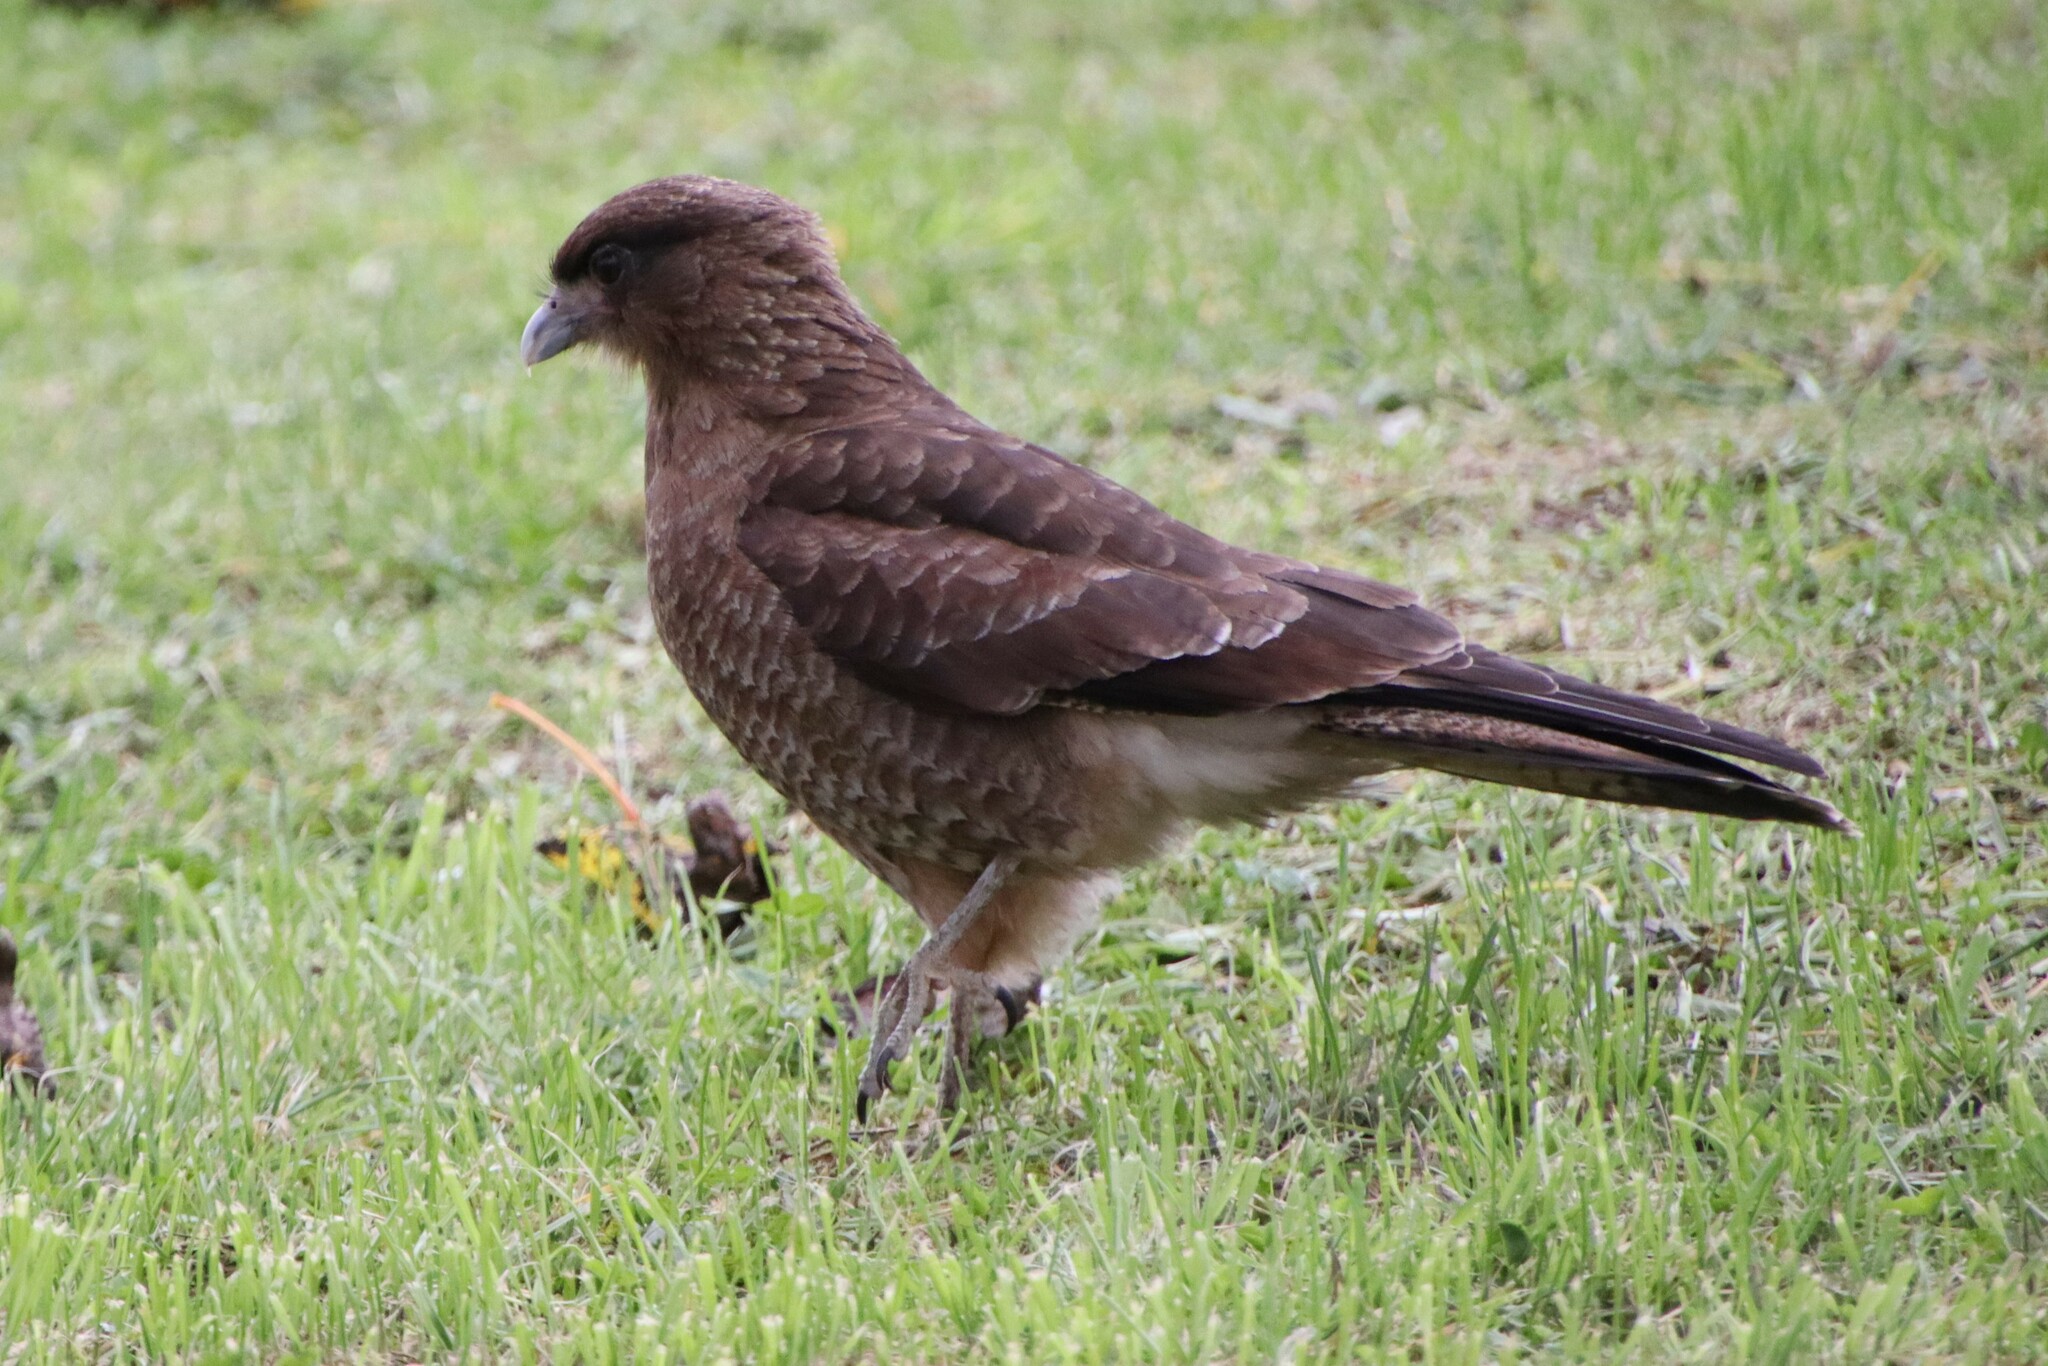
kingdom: Animalia
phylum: Chordata
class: Aves
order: Falconiformes
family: Falconidae
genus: Daptrius
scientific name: Daptrius
